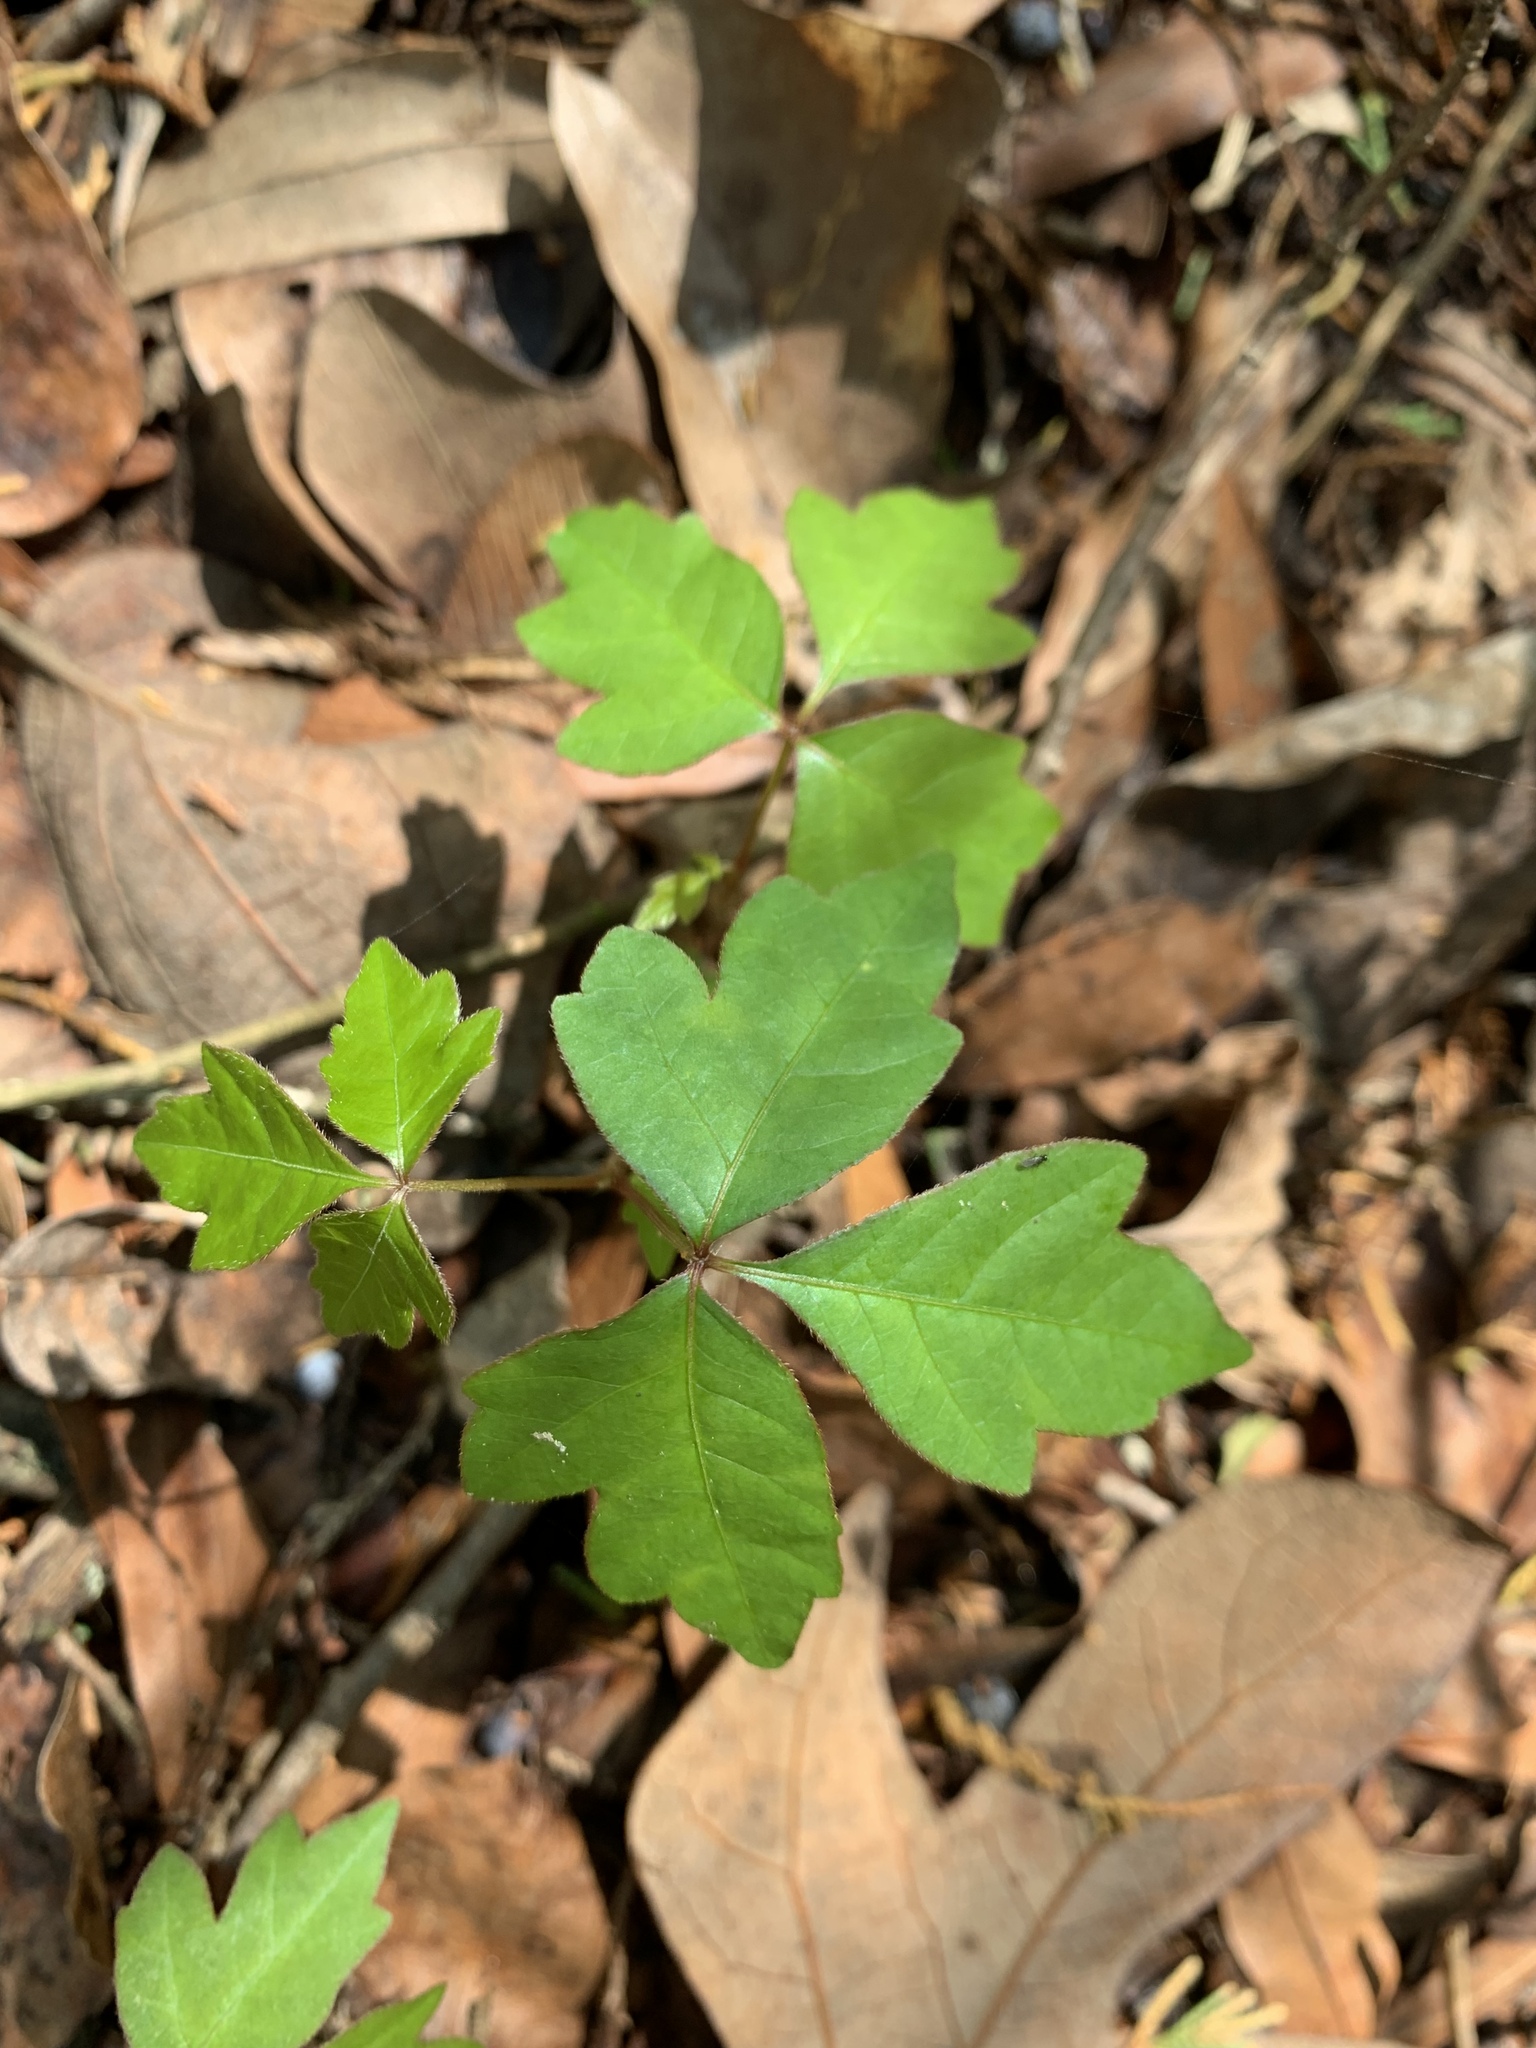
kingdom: Plantae
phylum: Tracheophyta
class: Magnoliopsida
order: Sapindales
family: Anacardiaceae
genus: Toxicodendron
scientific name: Toxicodendron radicans
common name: Poison ivy
